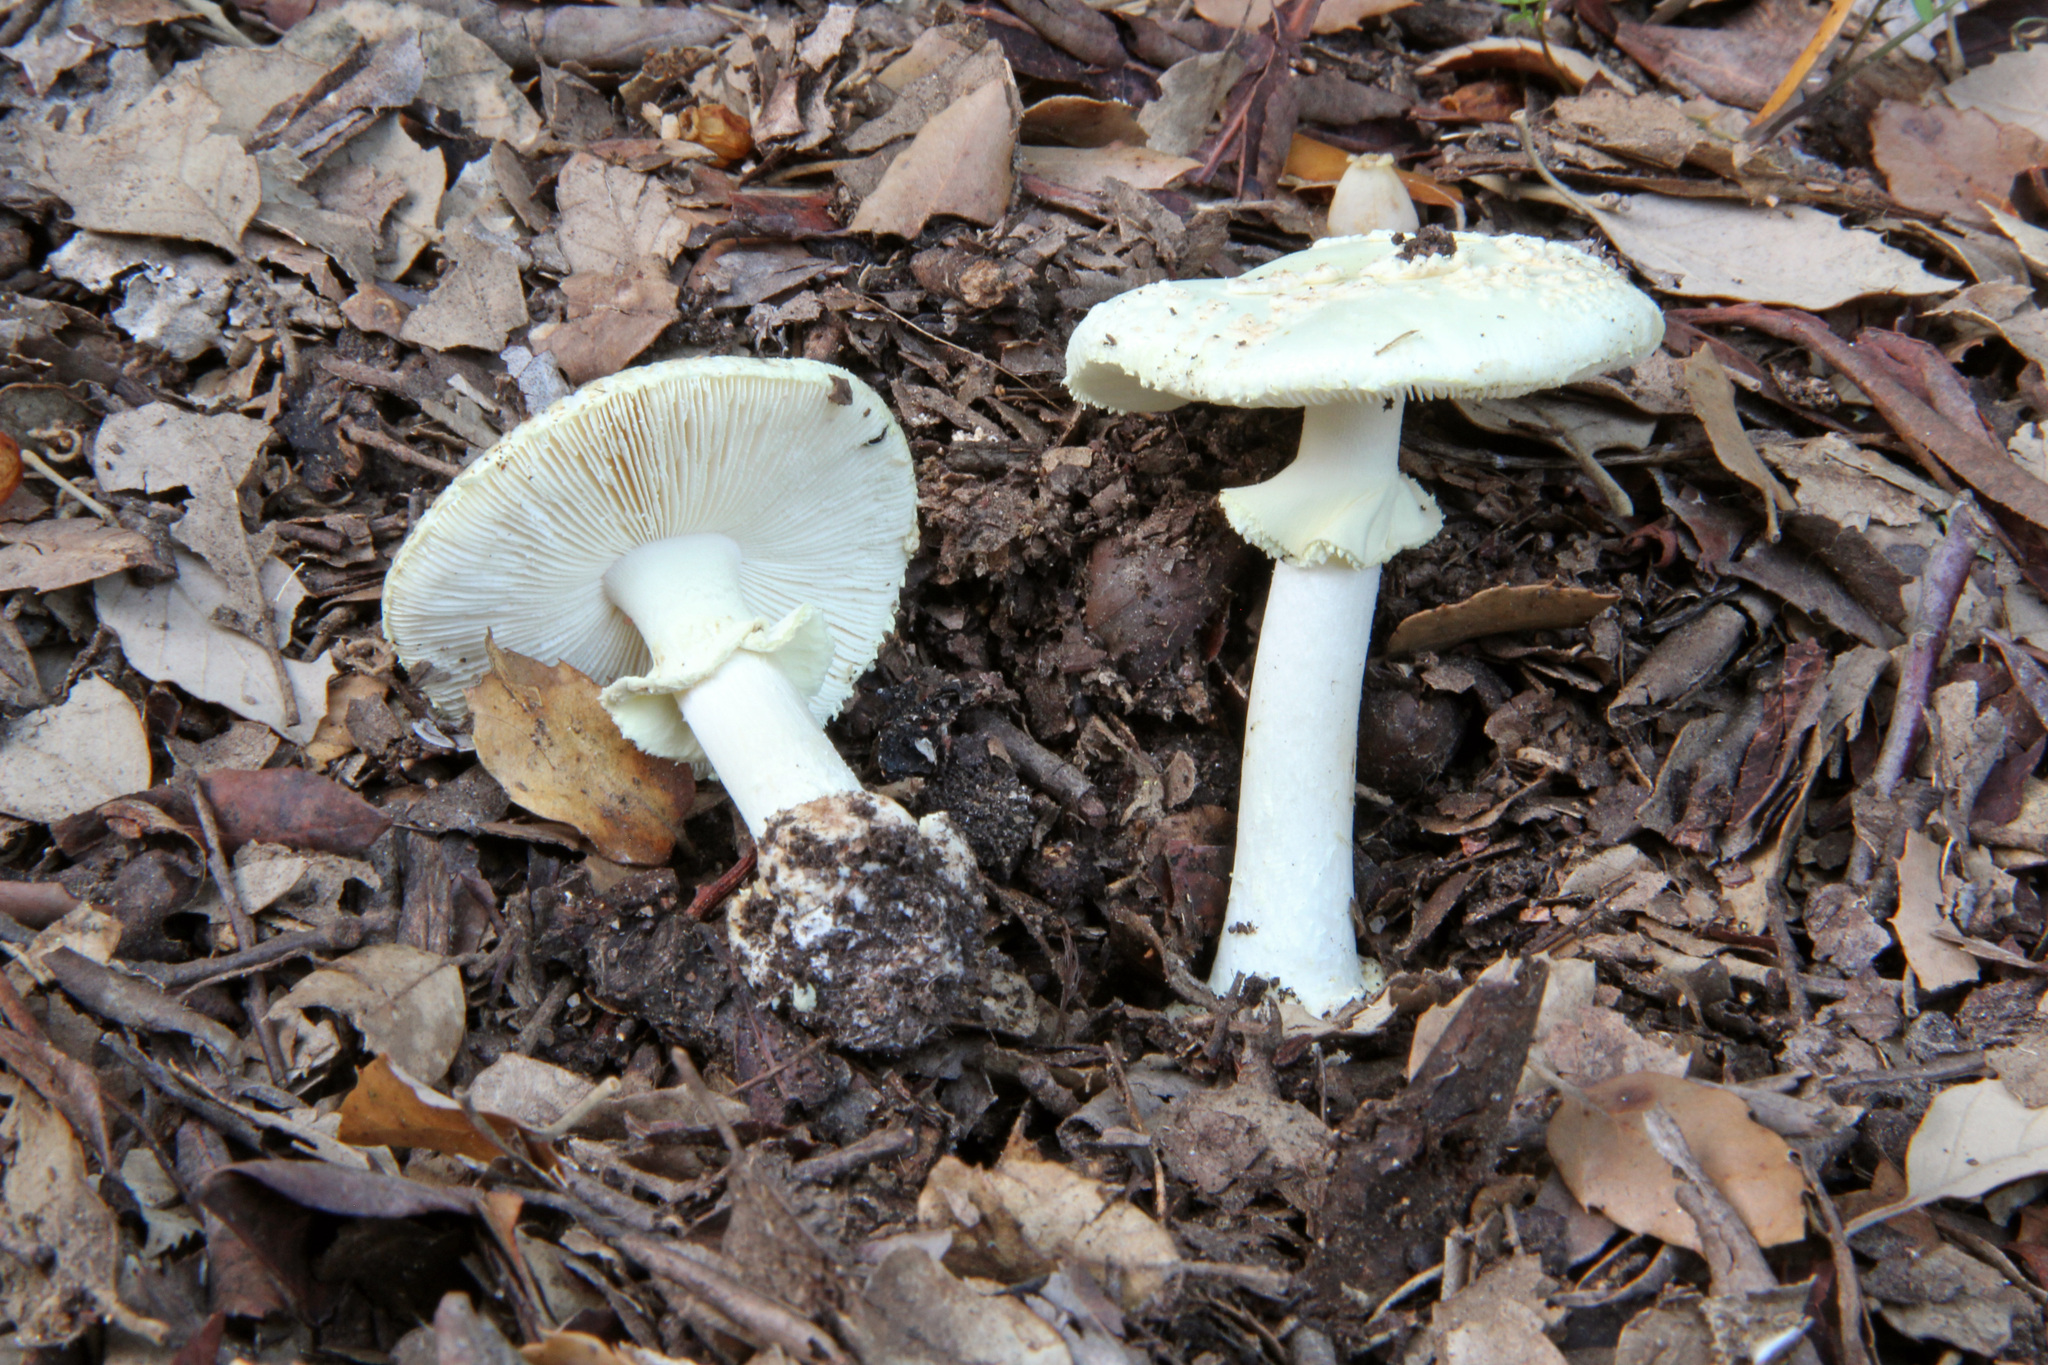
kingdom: Fungi
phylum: Basidiomycota
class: Agaricomycetes
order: Agaricales
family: Amanitaceae
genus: Amanita
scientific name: Amanita citrina
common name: False death-cap
